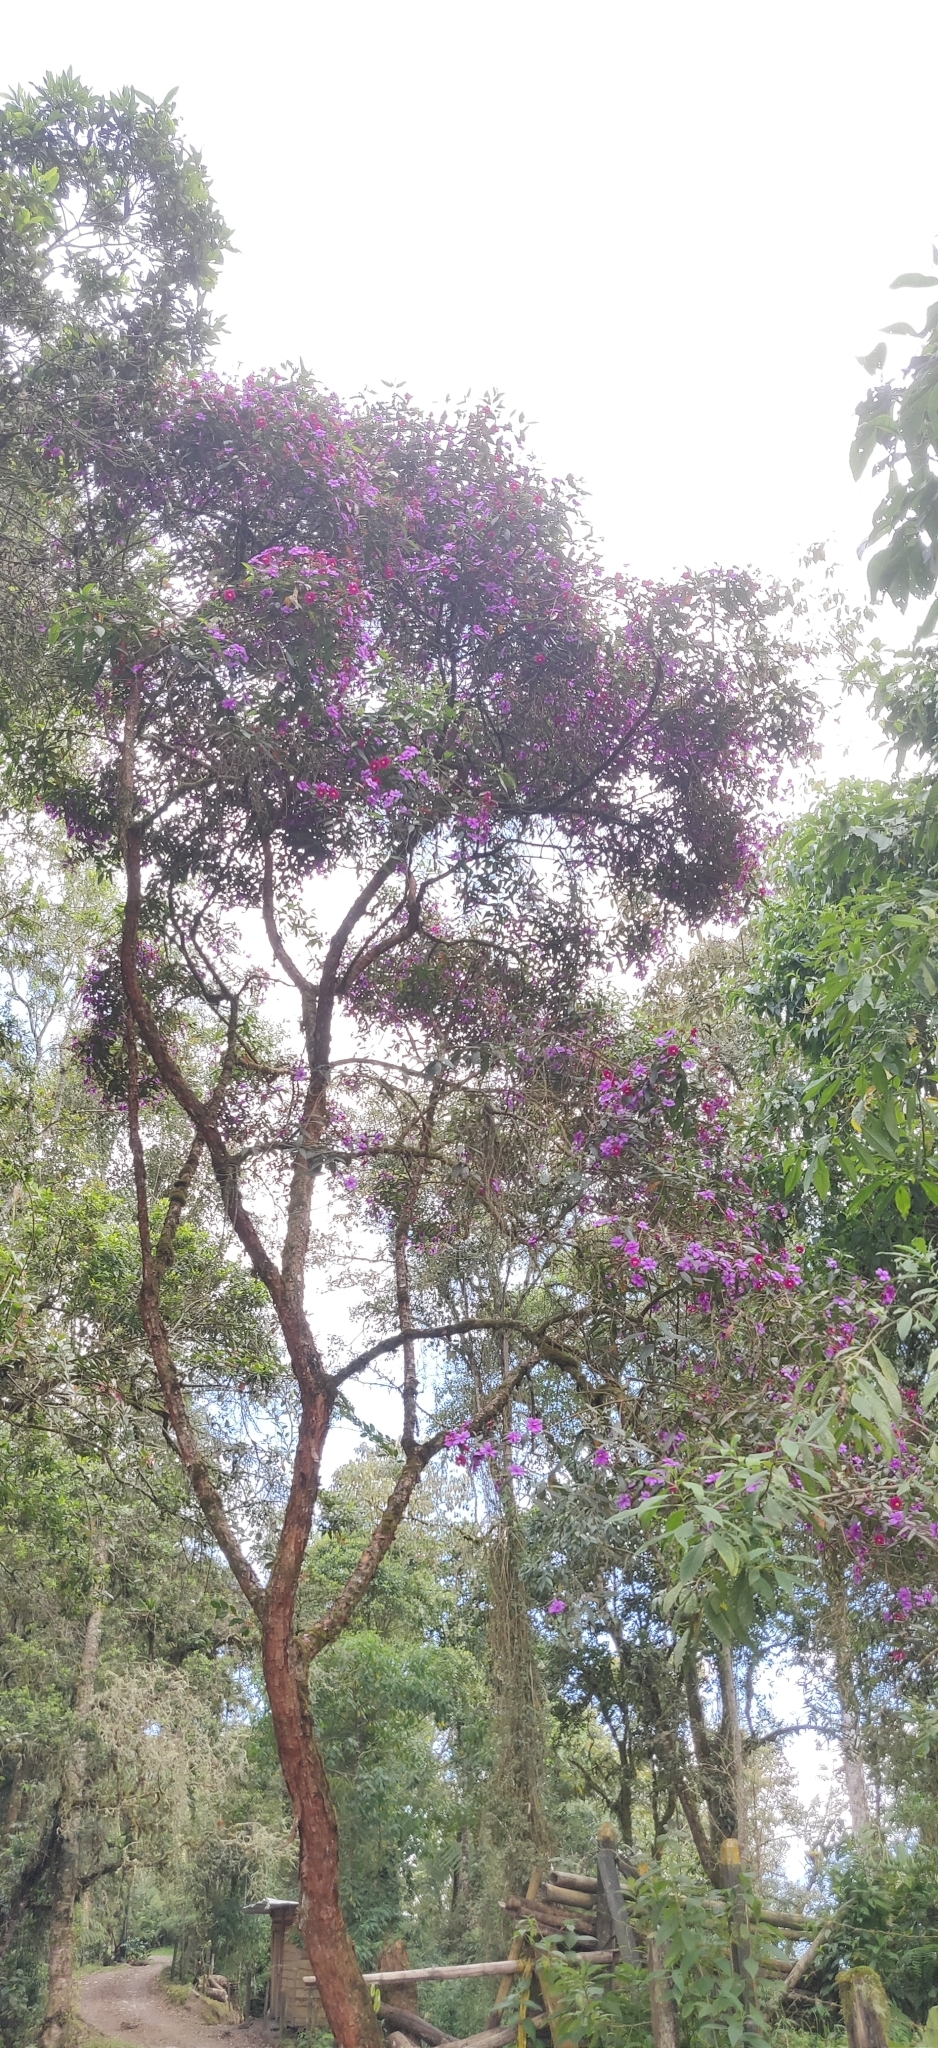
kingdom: Plantae
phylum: Tracheophyta
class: Magnoliopsida
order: Myrtales
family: Melastomataceae
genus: Andesanthus
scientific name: Andesanthus lepidotus
